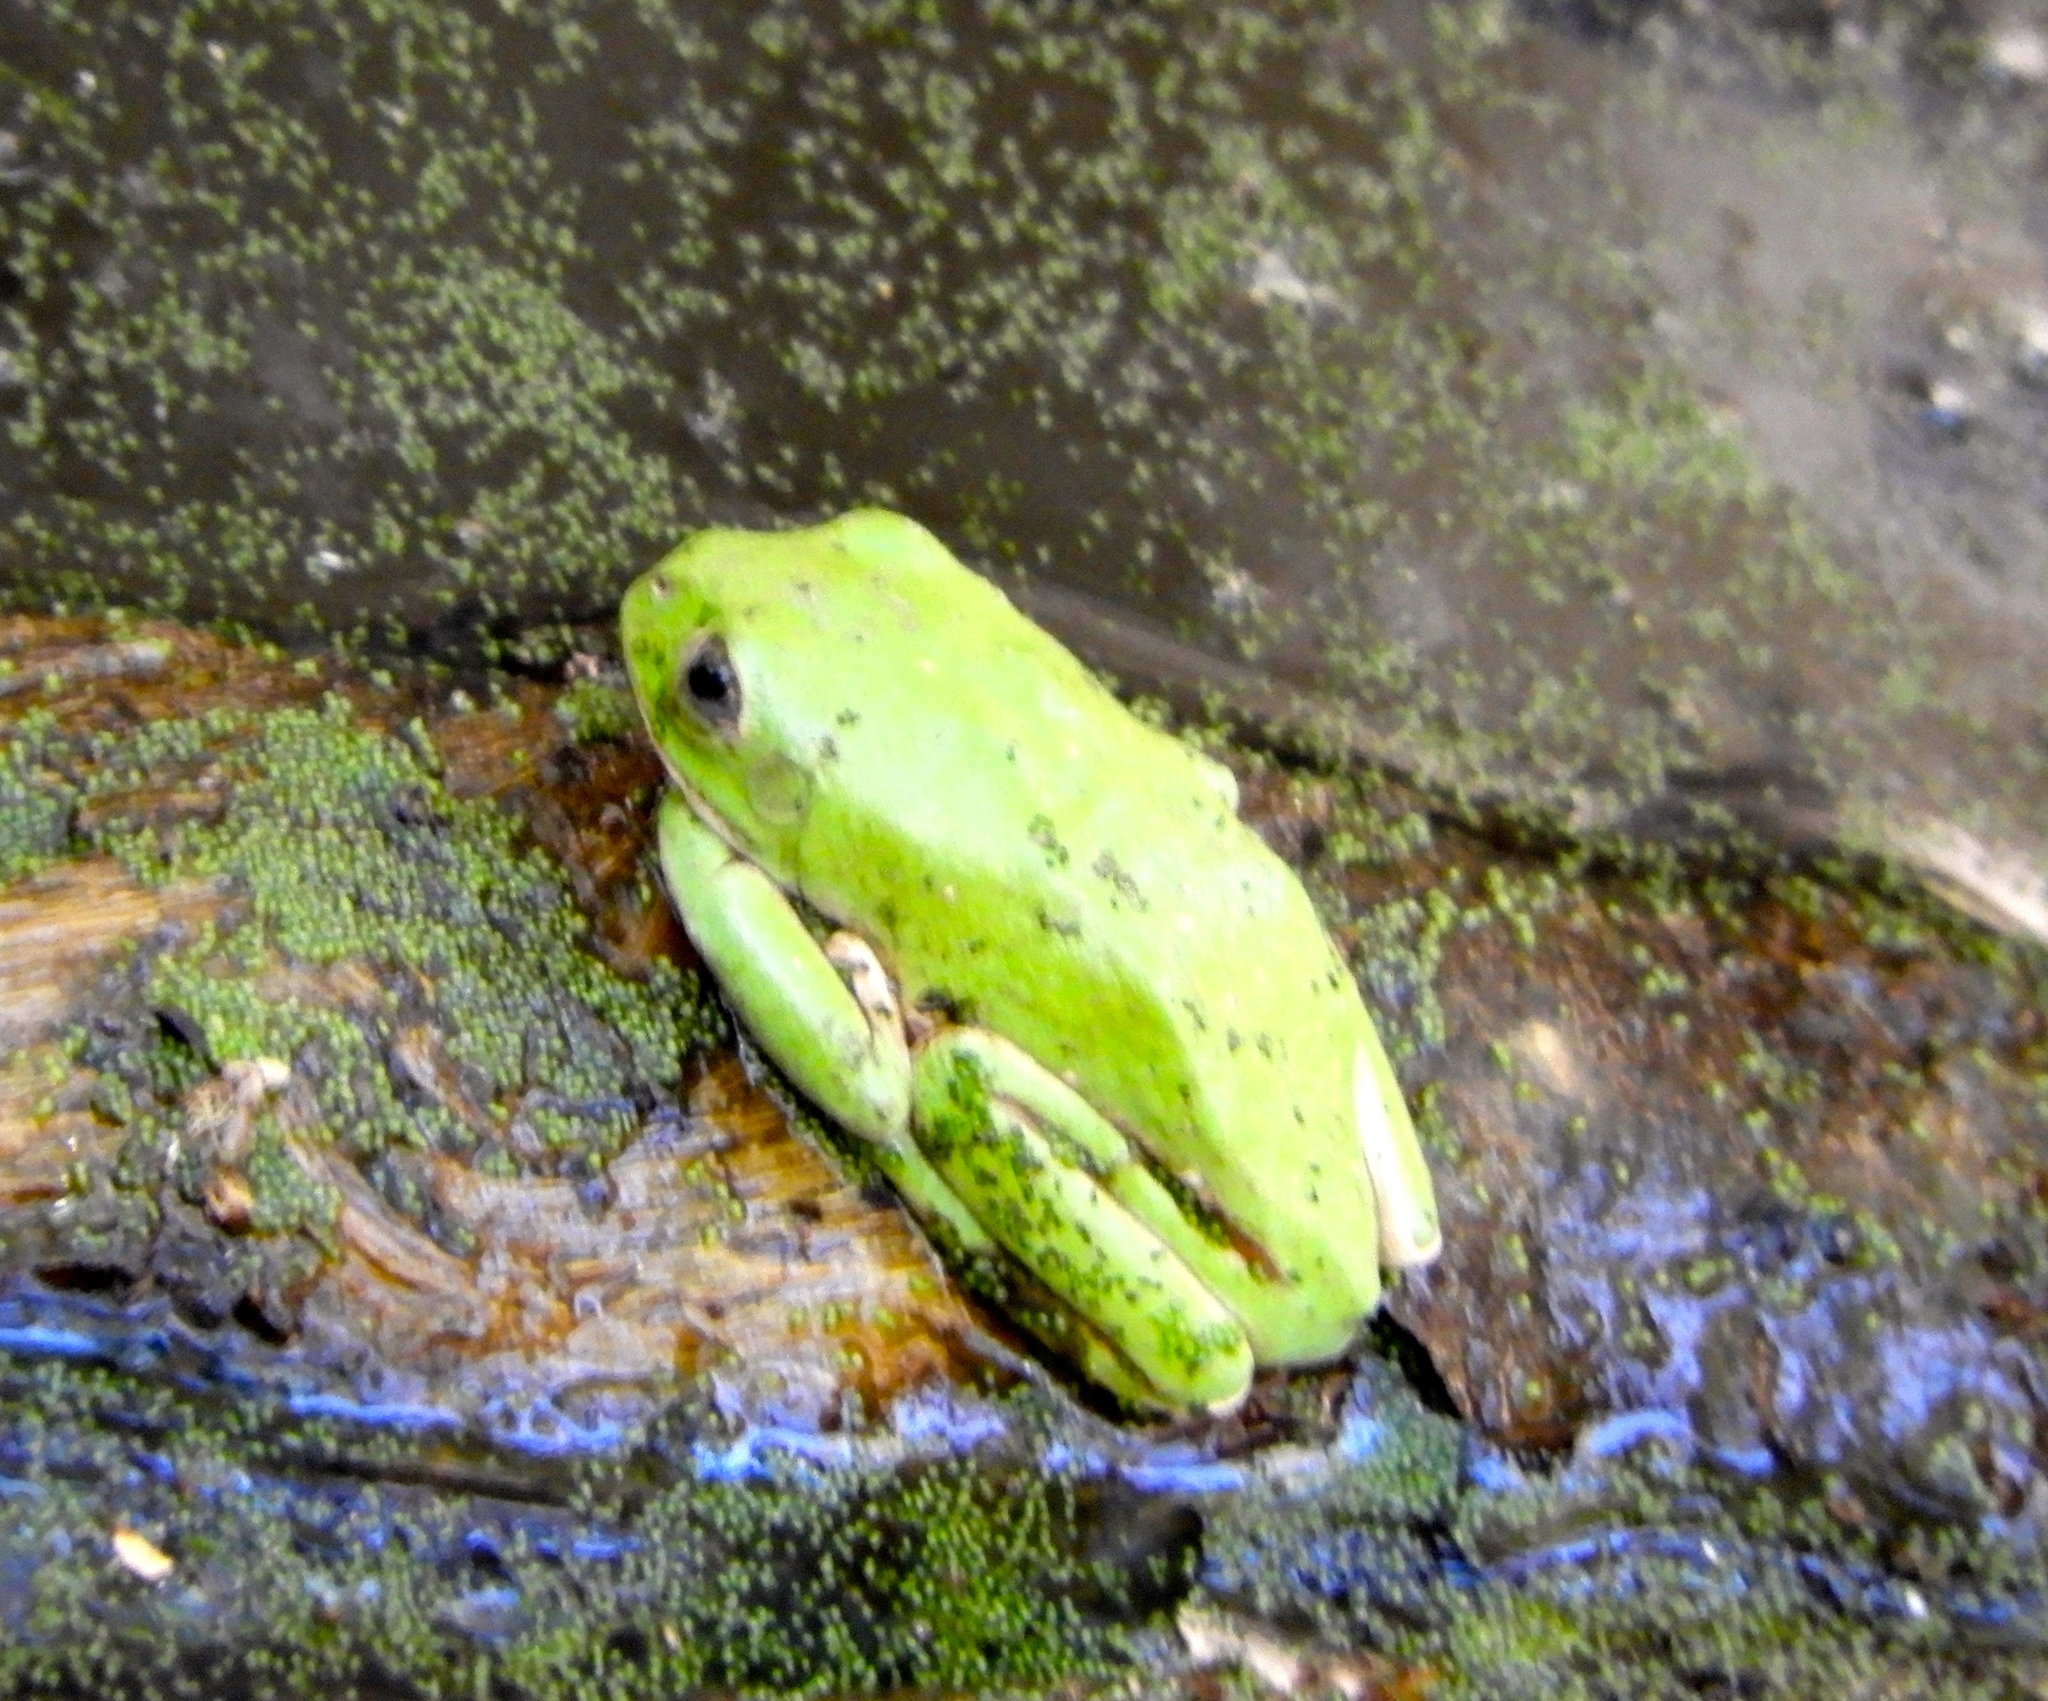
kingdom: Animalia
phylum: Chordata
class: Amphibia
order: Anura
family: Phyllomedusidae
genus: Agalychnis
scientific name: Agalychnis dacnicolor
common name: Mexican giant tree frog
